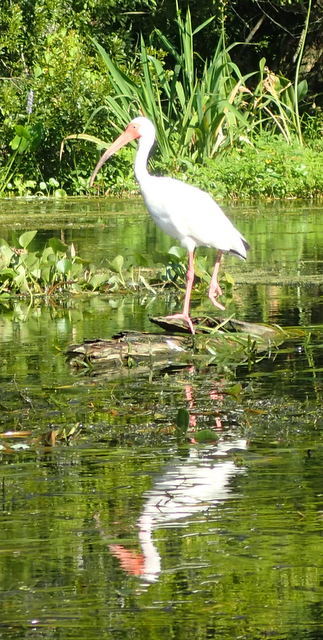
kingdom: Animalia
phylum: Chordata
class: Aves
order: Pelecaniformes
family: Threskiornithidae
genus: Eudocimus
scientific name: Eudocimus albus
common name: White ibis
